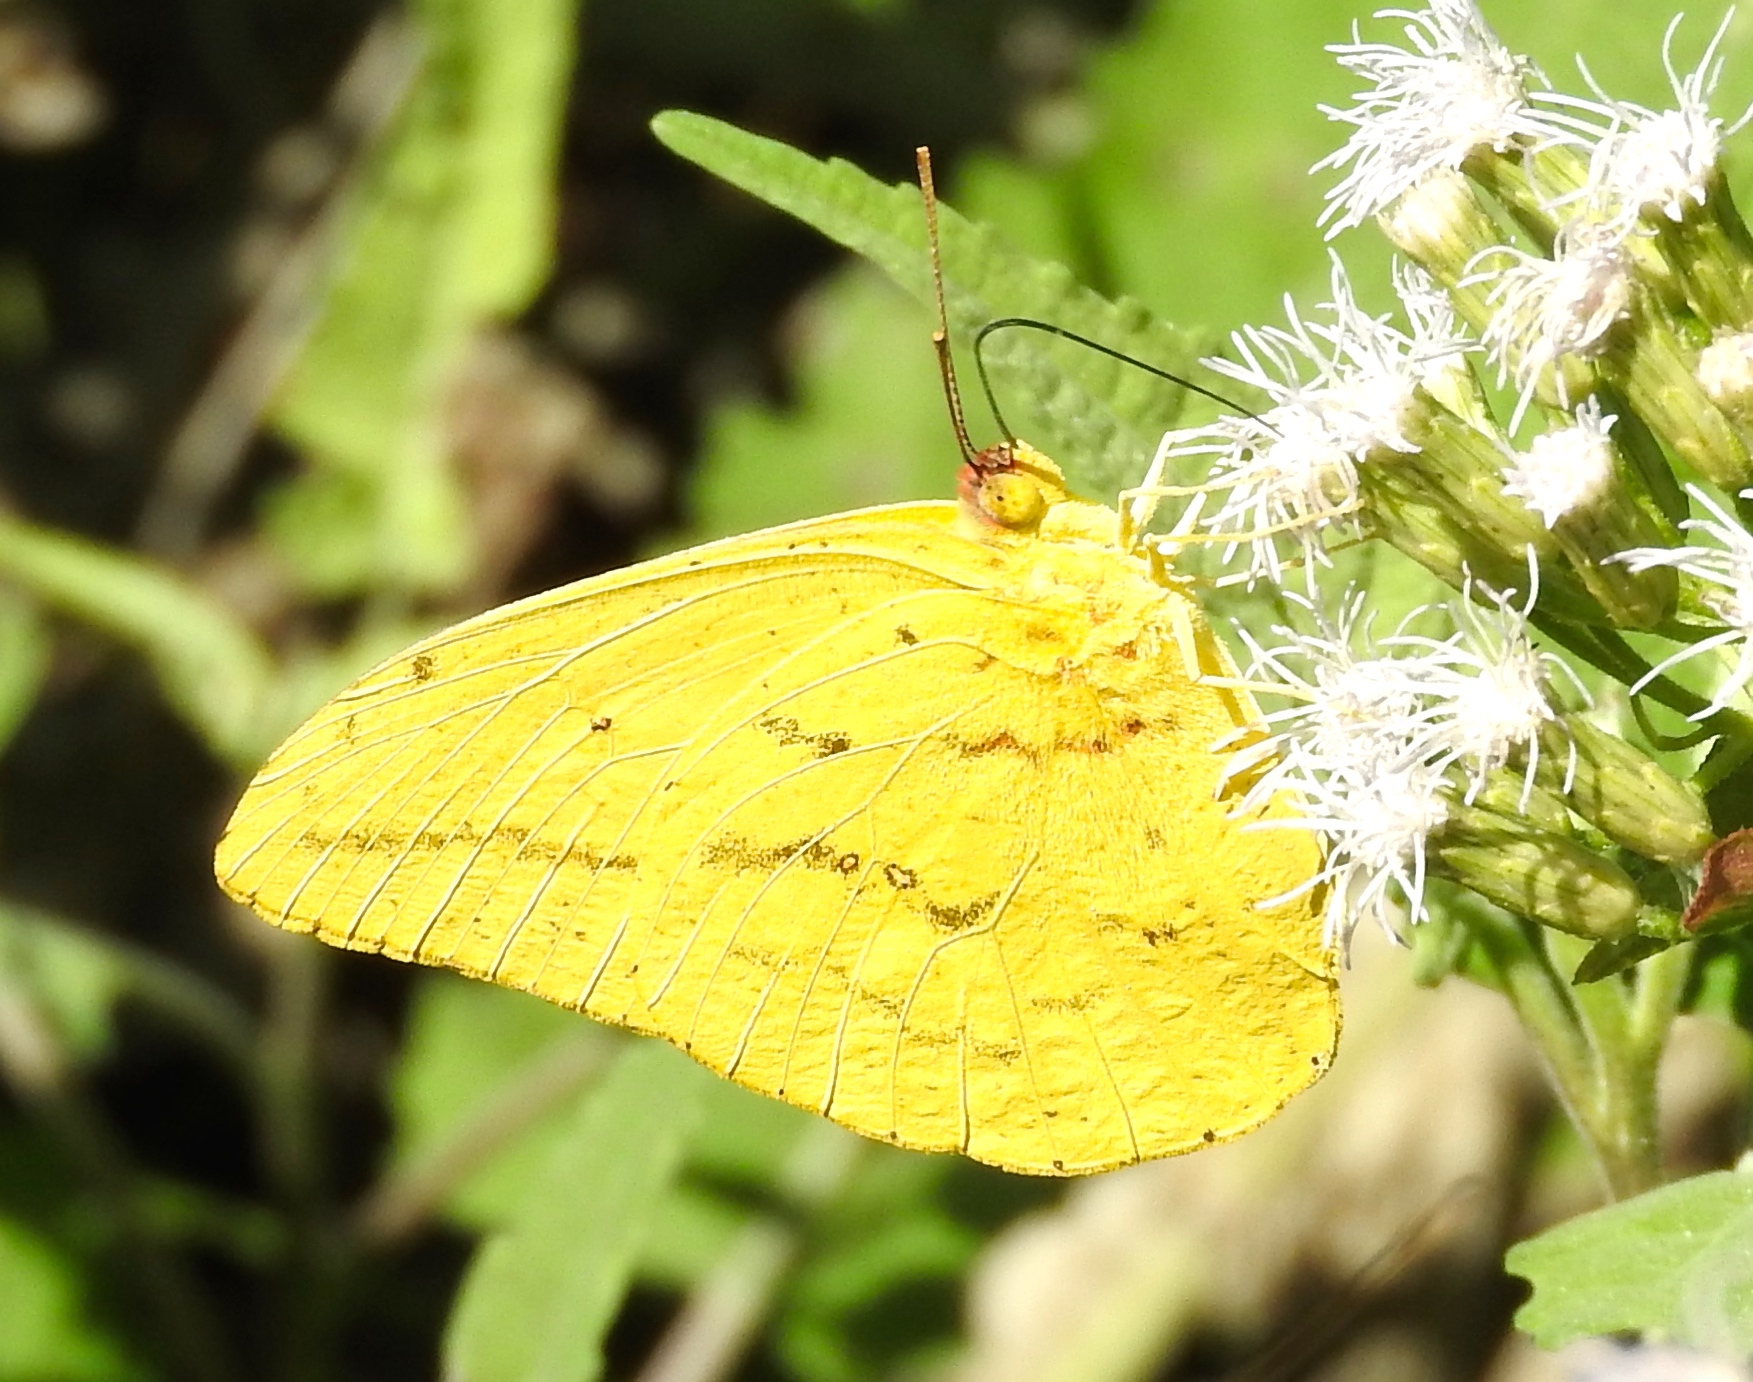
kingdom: Animalia
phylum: Arthropoda
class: Insecta
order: Lepidoptera
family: Pieridae
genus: Phoebis
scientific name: Phoebis agarithe
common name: Large orange sulphur
